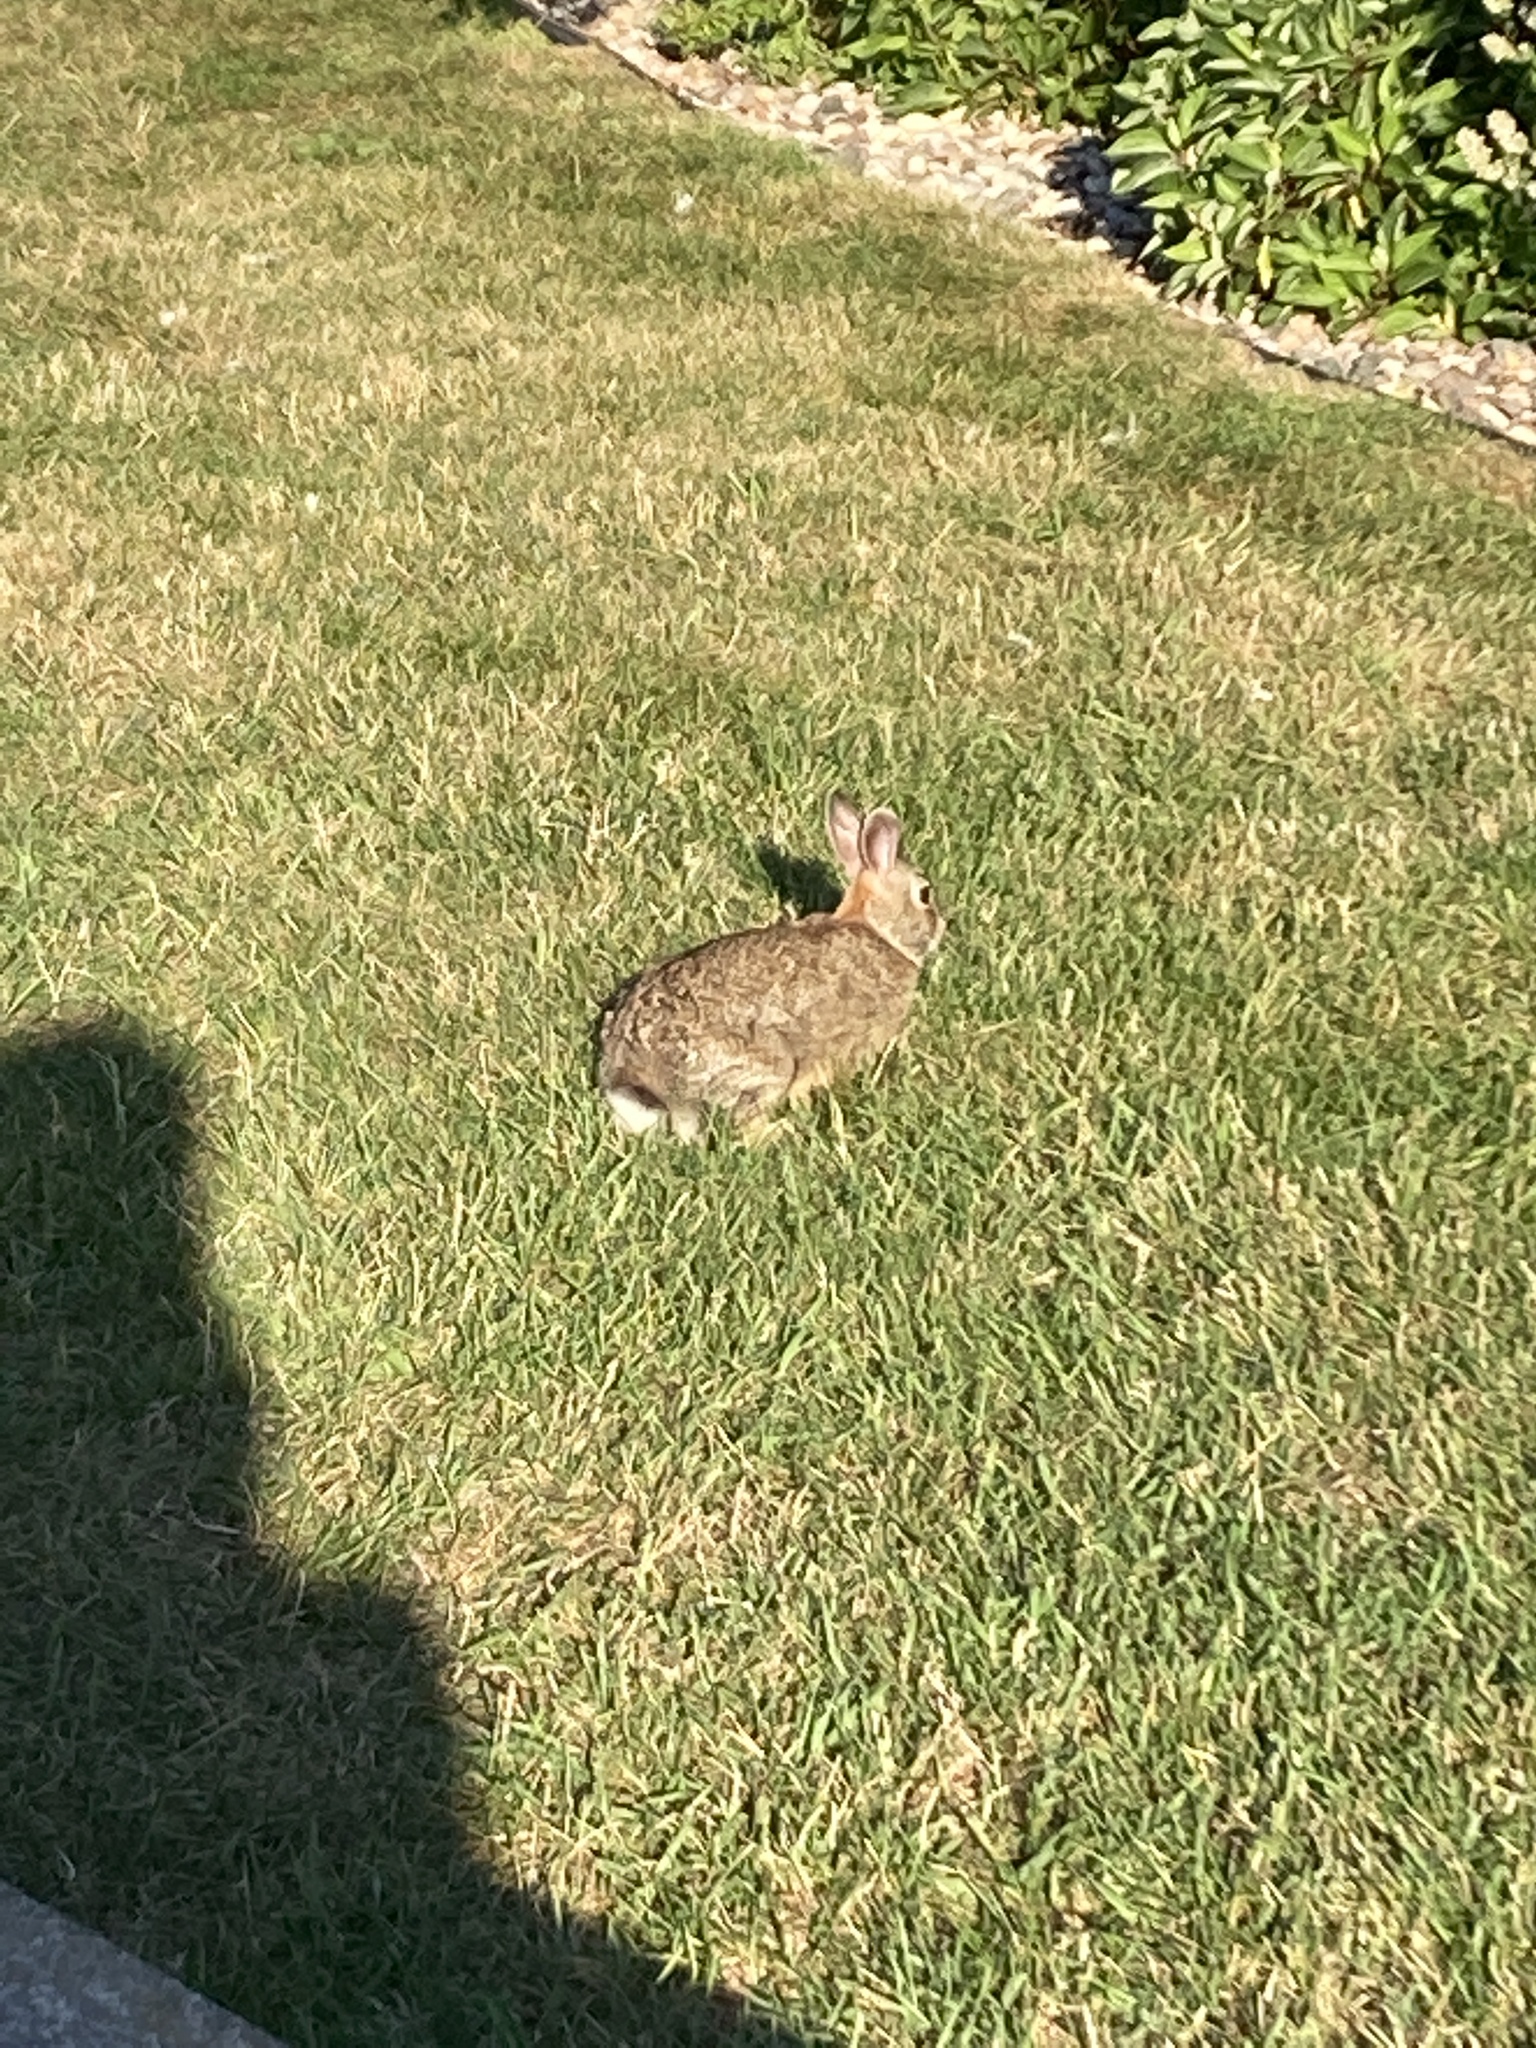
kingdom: Animalia
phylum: Chordata
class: Mammalia
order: Lagomorpha
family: Leporidae
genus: Sylvilagus
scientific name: Sylvilagus floridanus
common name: Eastern cottontail
